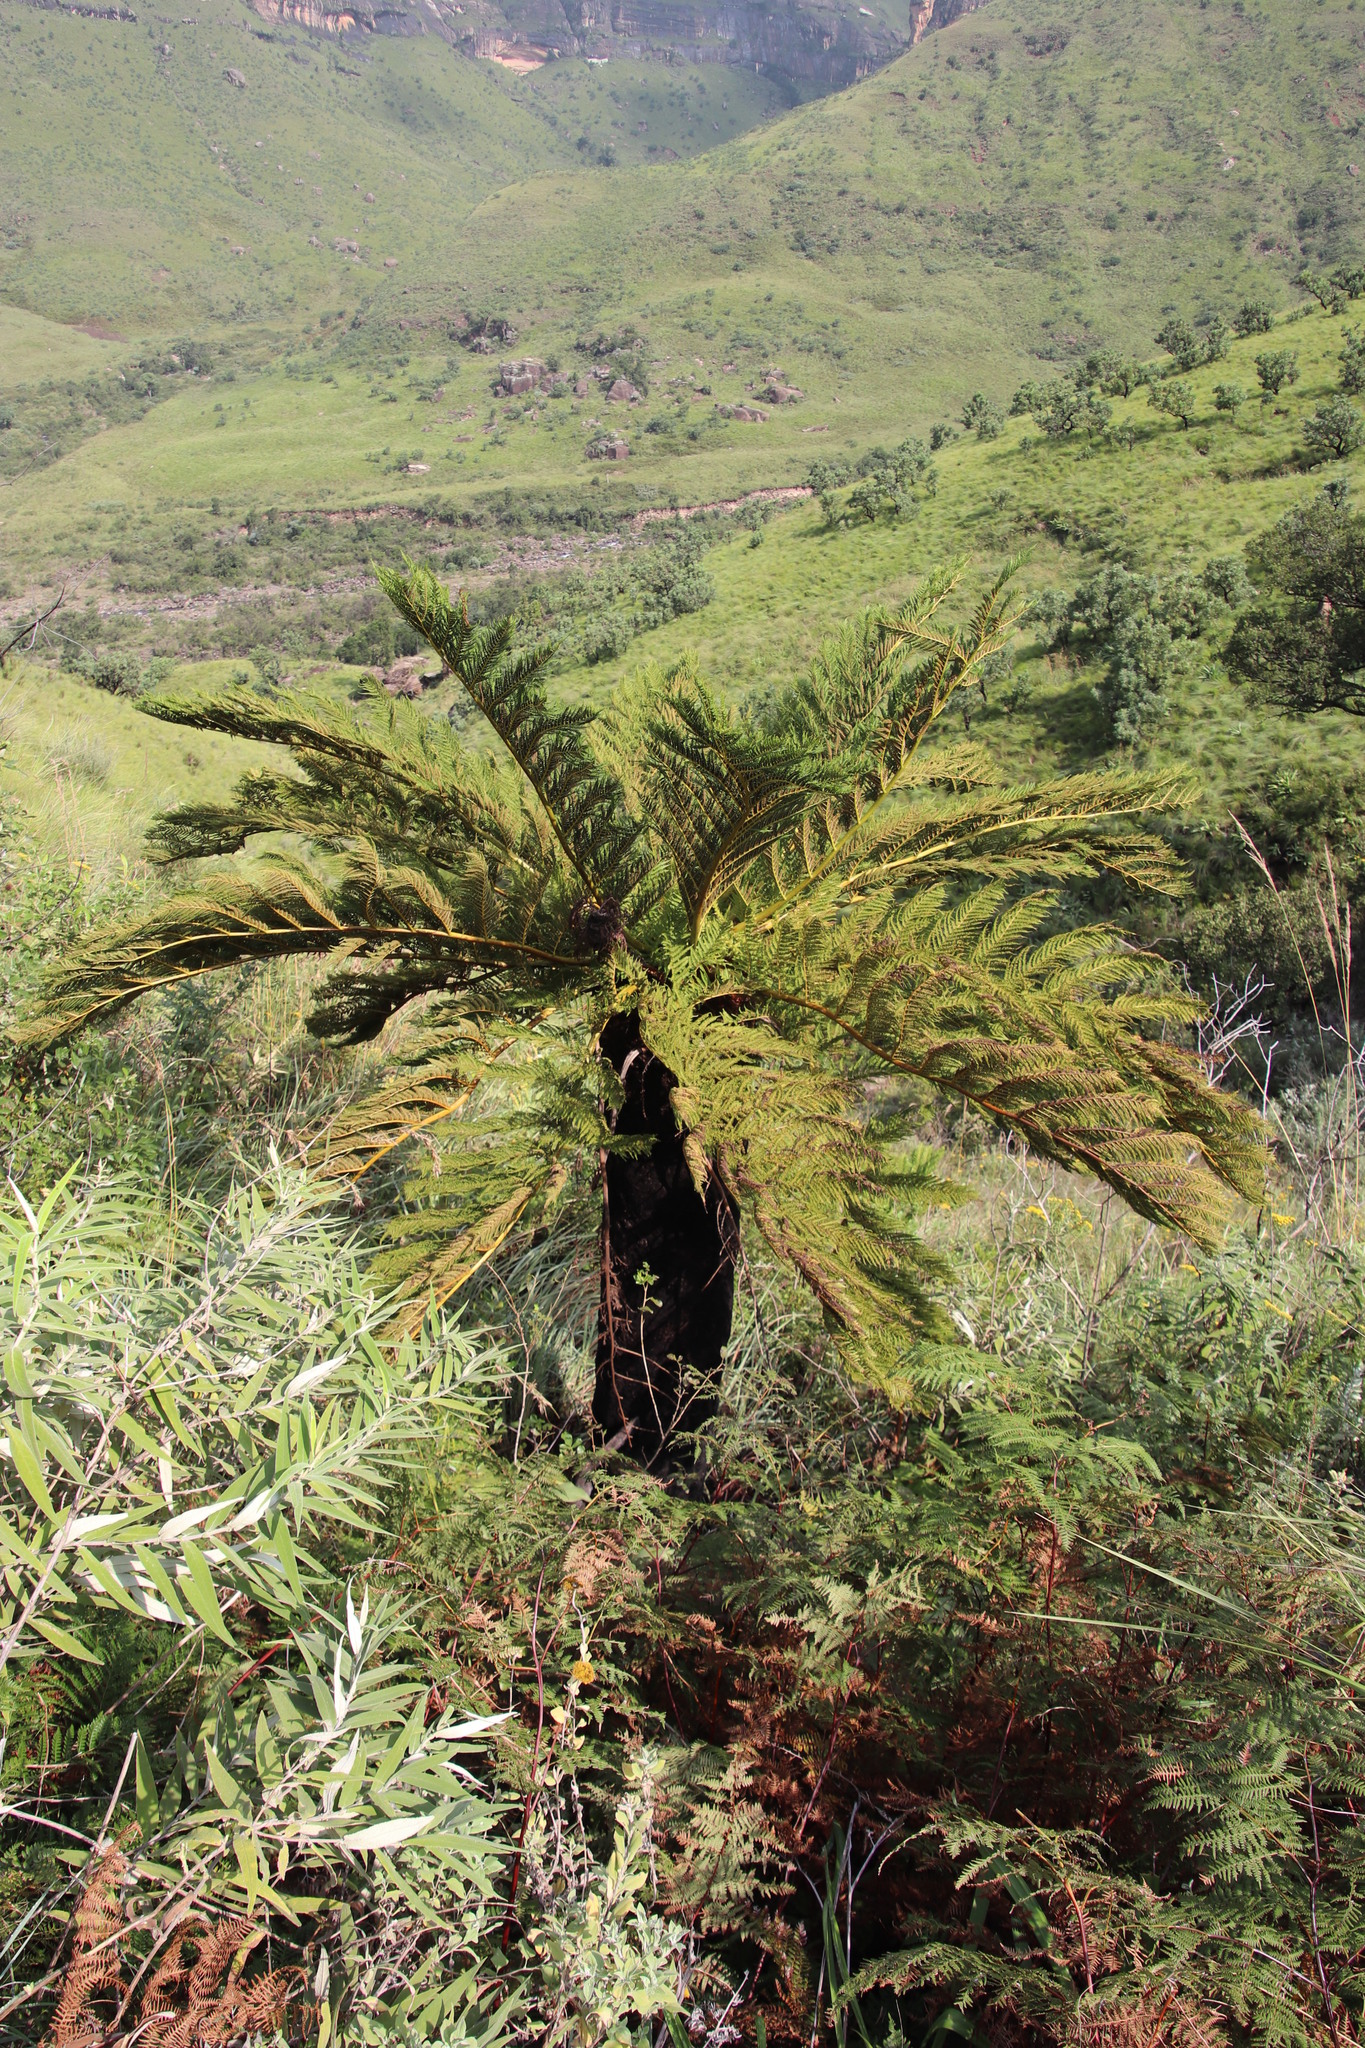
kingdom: Plantae
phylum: Tracheophyta
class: Polypodiopsida
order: Cyatheales
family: Cyatheaceae
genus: Alsophila
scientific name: Alsophila dregei
